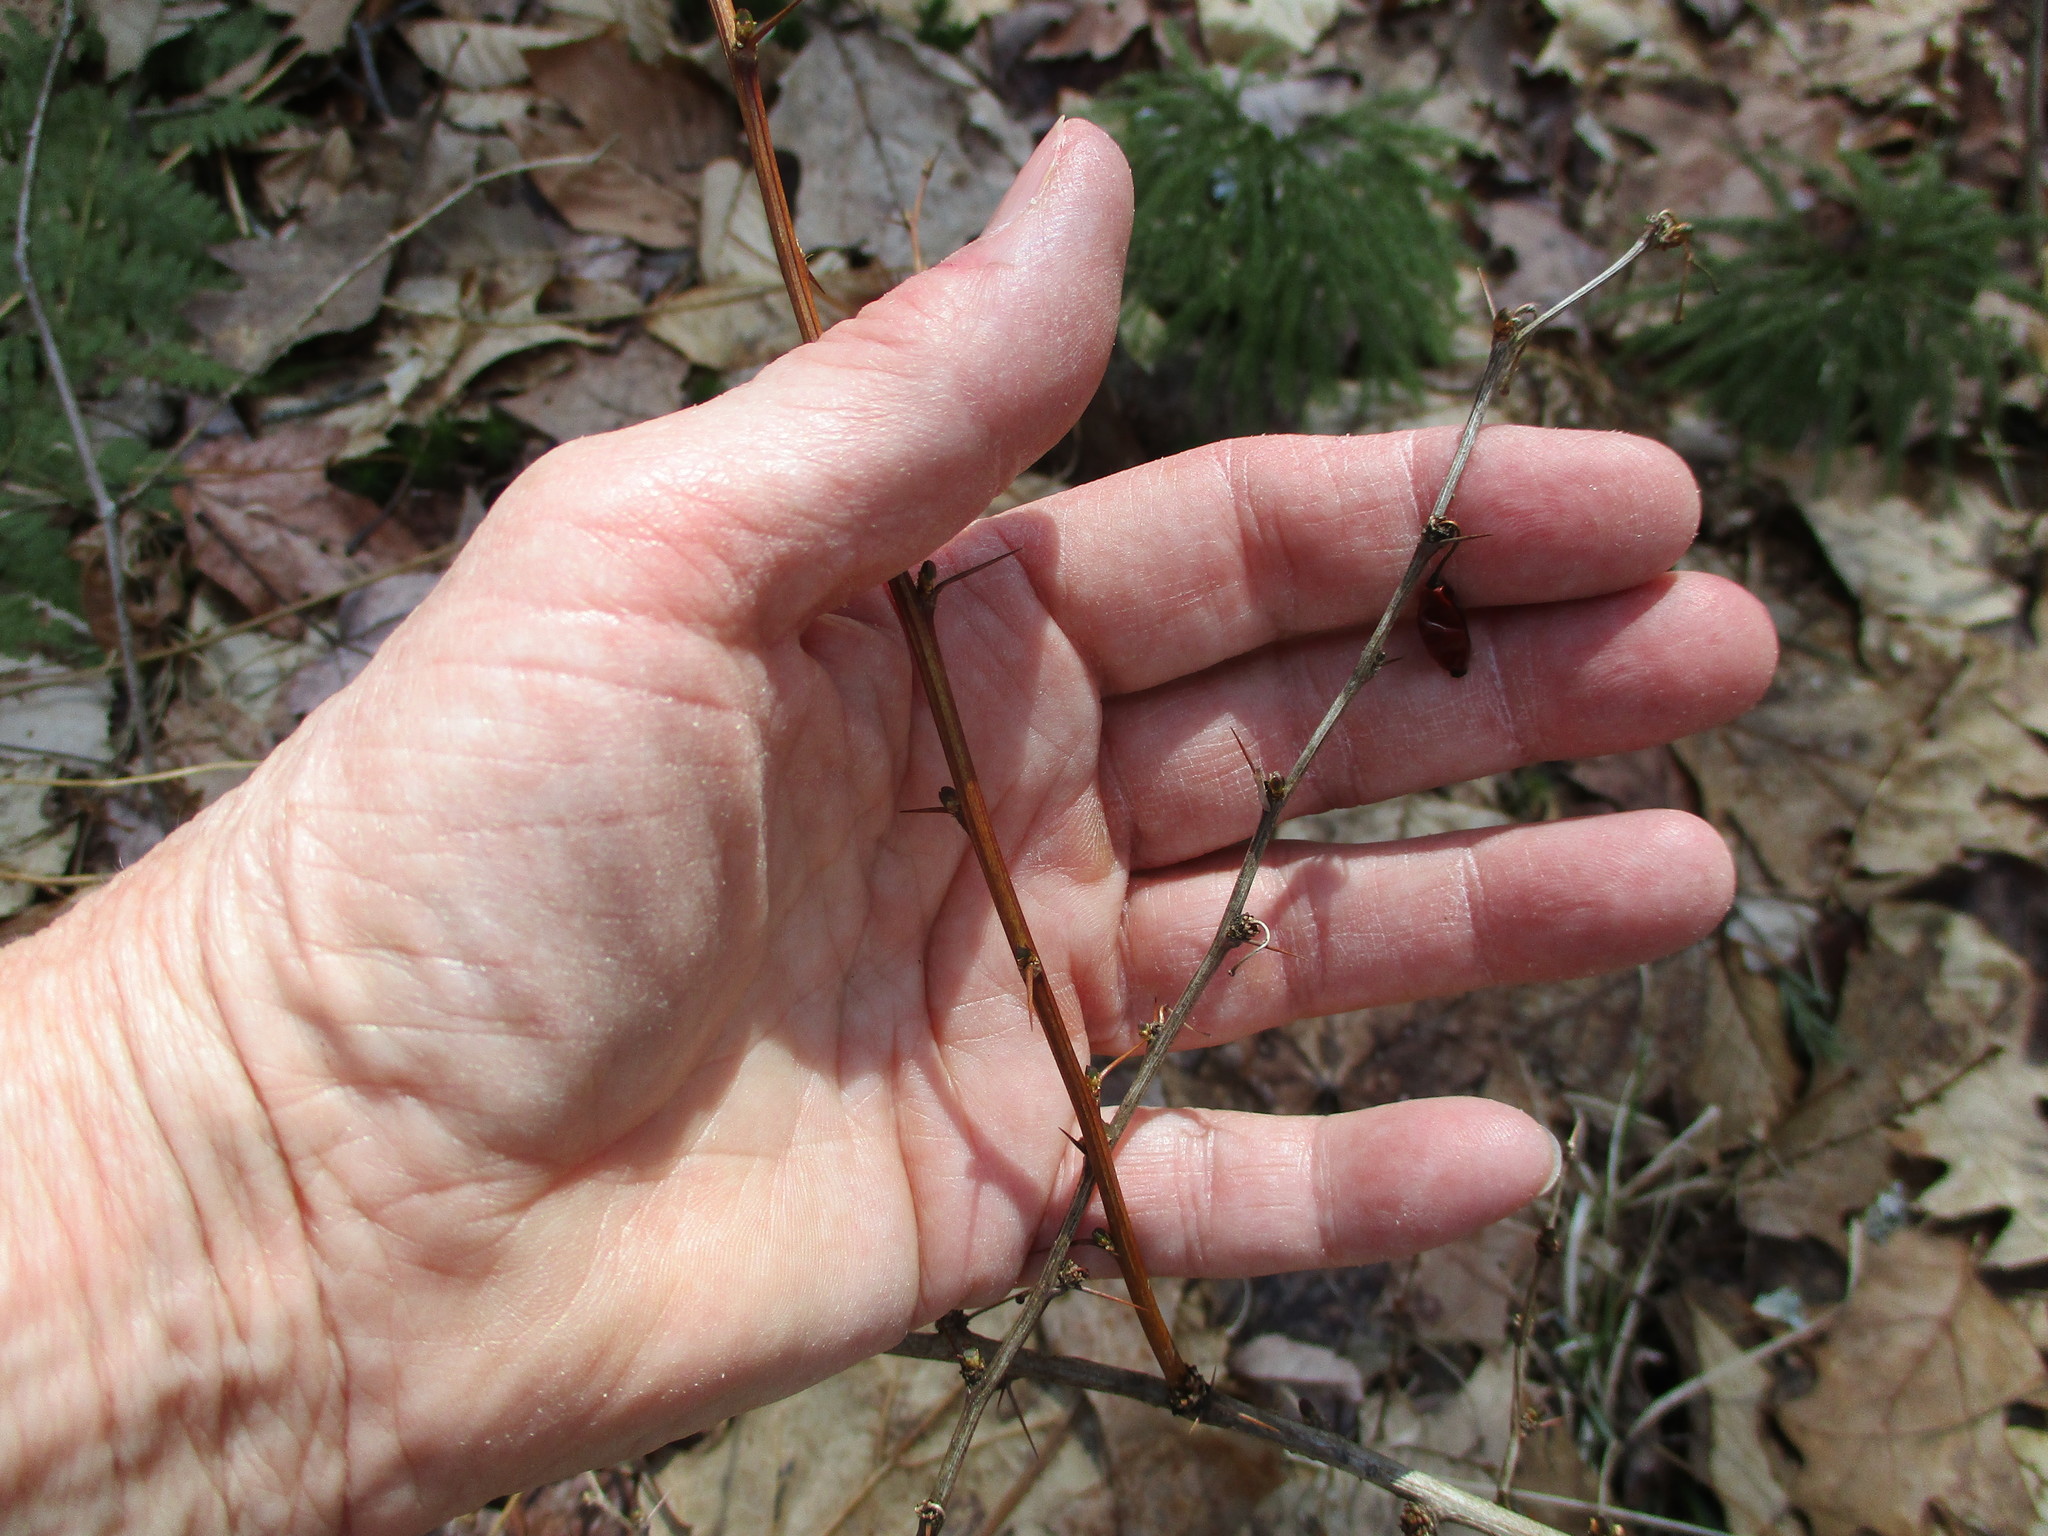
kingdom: Plantae
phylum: Tracheophyta
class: Magnoliopsida
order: Ranunculales
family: Berberidaceae
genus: Berberis
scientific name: Berberis thunbergii
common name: Japanese barberry
